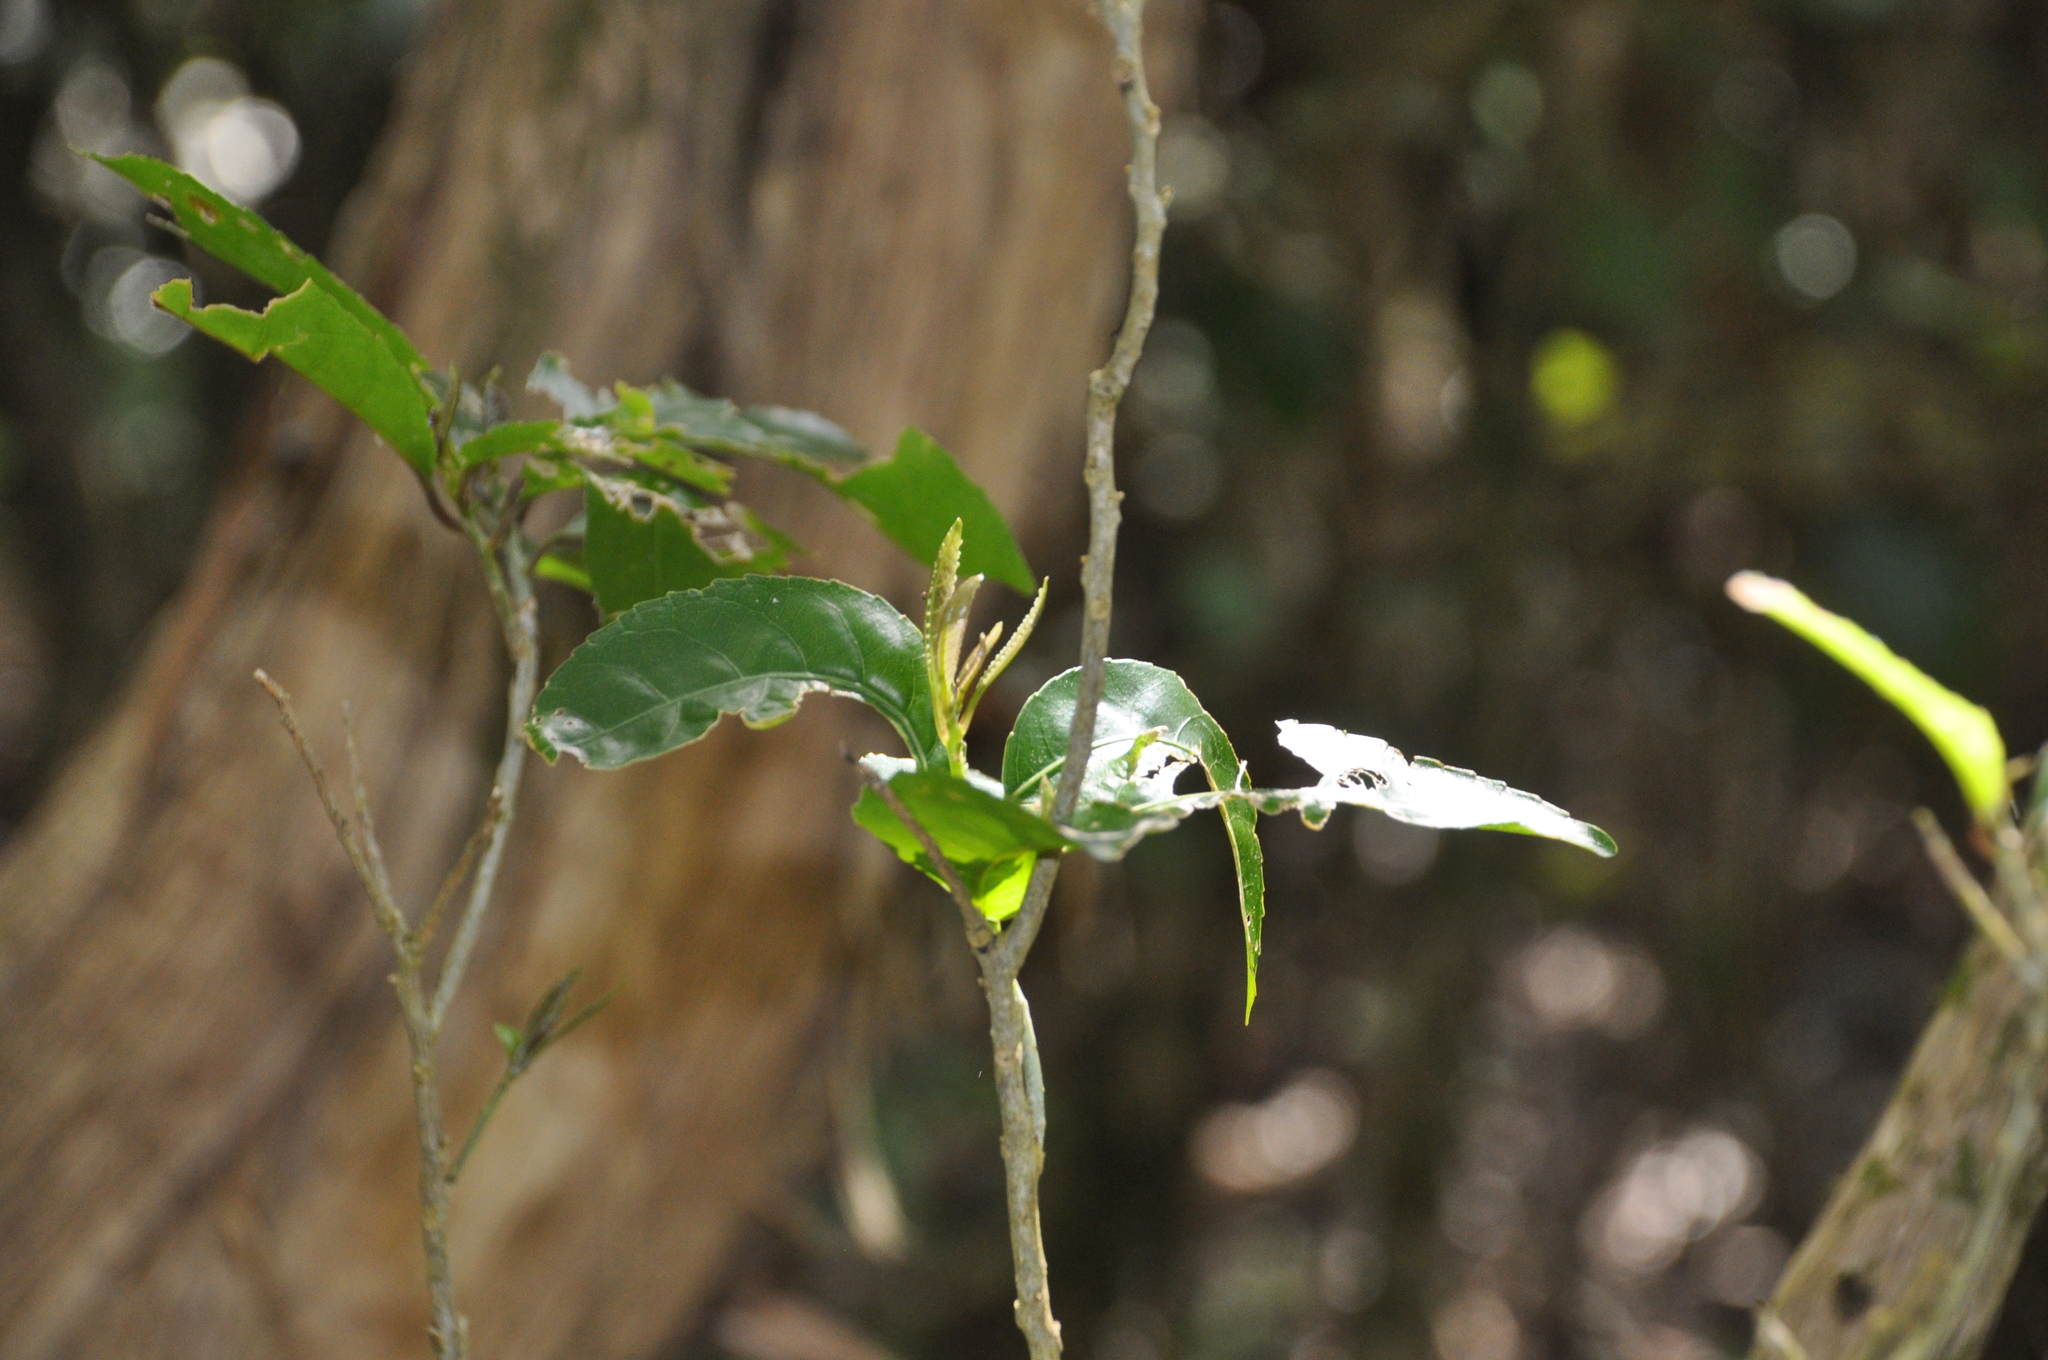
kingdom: Plantae
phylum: Tracheophyta
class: Magnoliopsida
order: Malpighiales
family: Violaceae
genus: Melicytus
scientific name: Melicytus ramiflorus
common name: Mahoe
